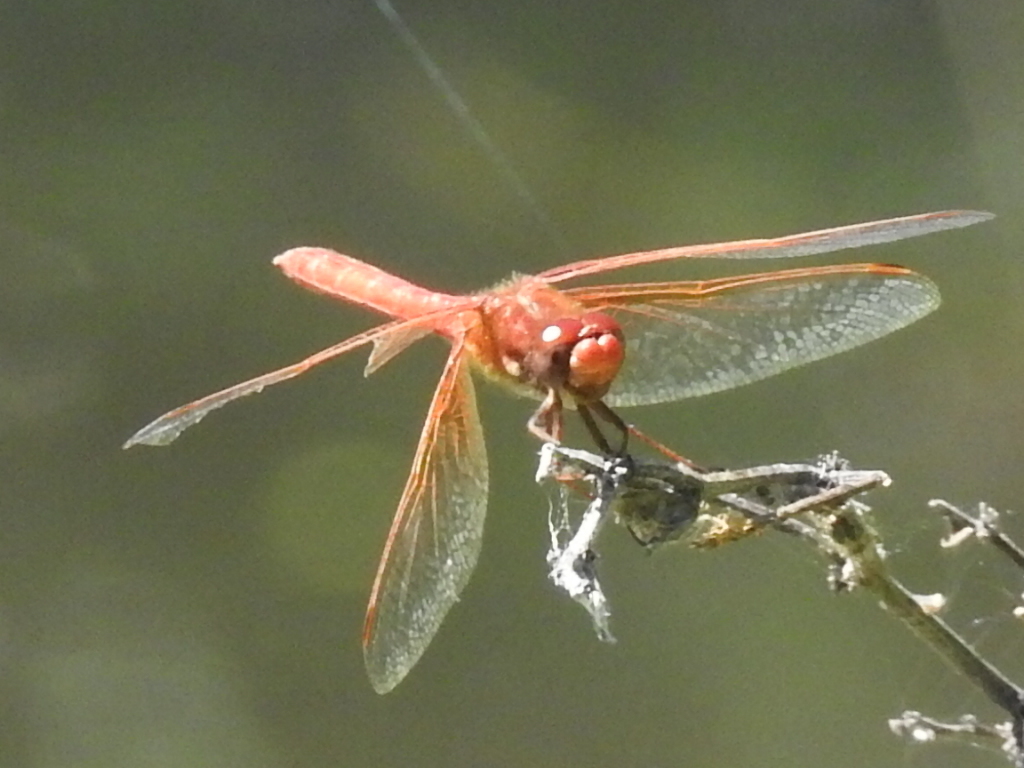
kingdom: Animalia
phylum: Arthropoda
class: Insecta
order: Odonata
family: Libellulidae
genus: Sympetrum
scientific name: Sympetrum illotum
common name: Cardinal meadowhawk
